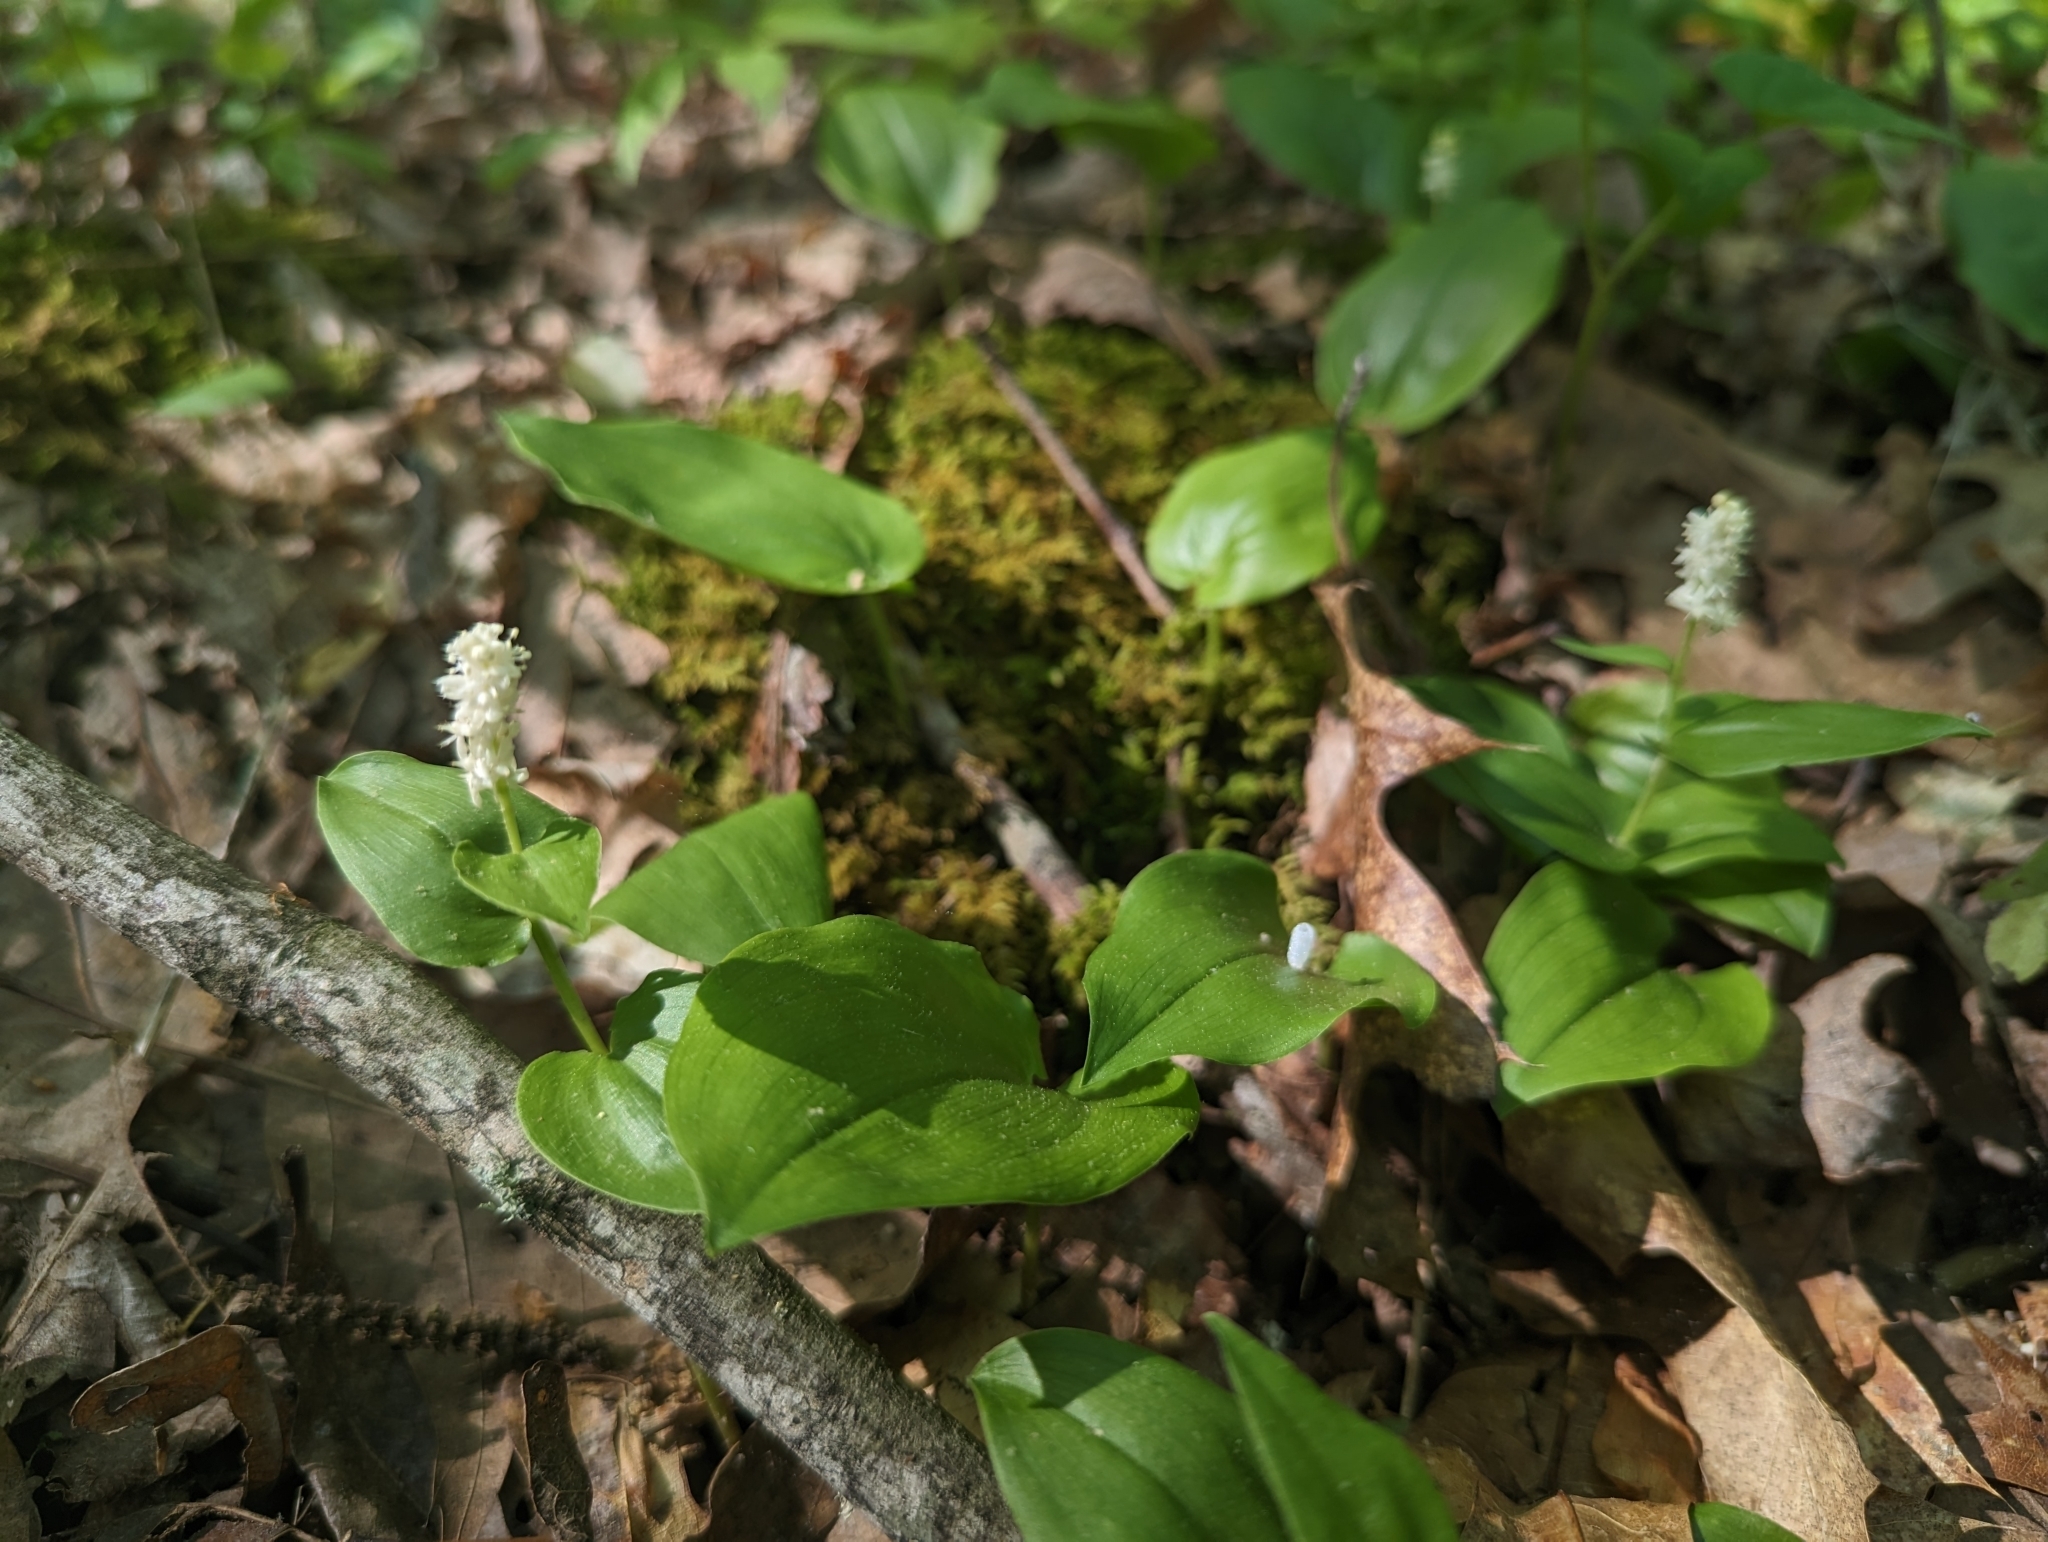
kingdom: Plantae
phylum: Tracheophyta
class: Liliopsida
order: Asparagales
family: Asparagaceae
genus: Maianthemum
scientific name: Maianthemum canadense
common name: False lily-of-the-valley
